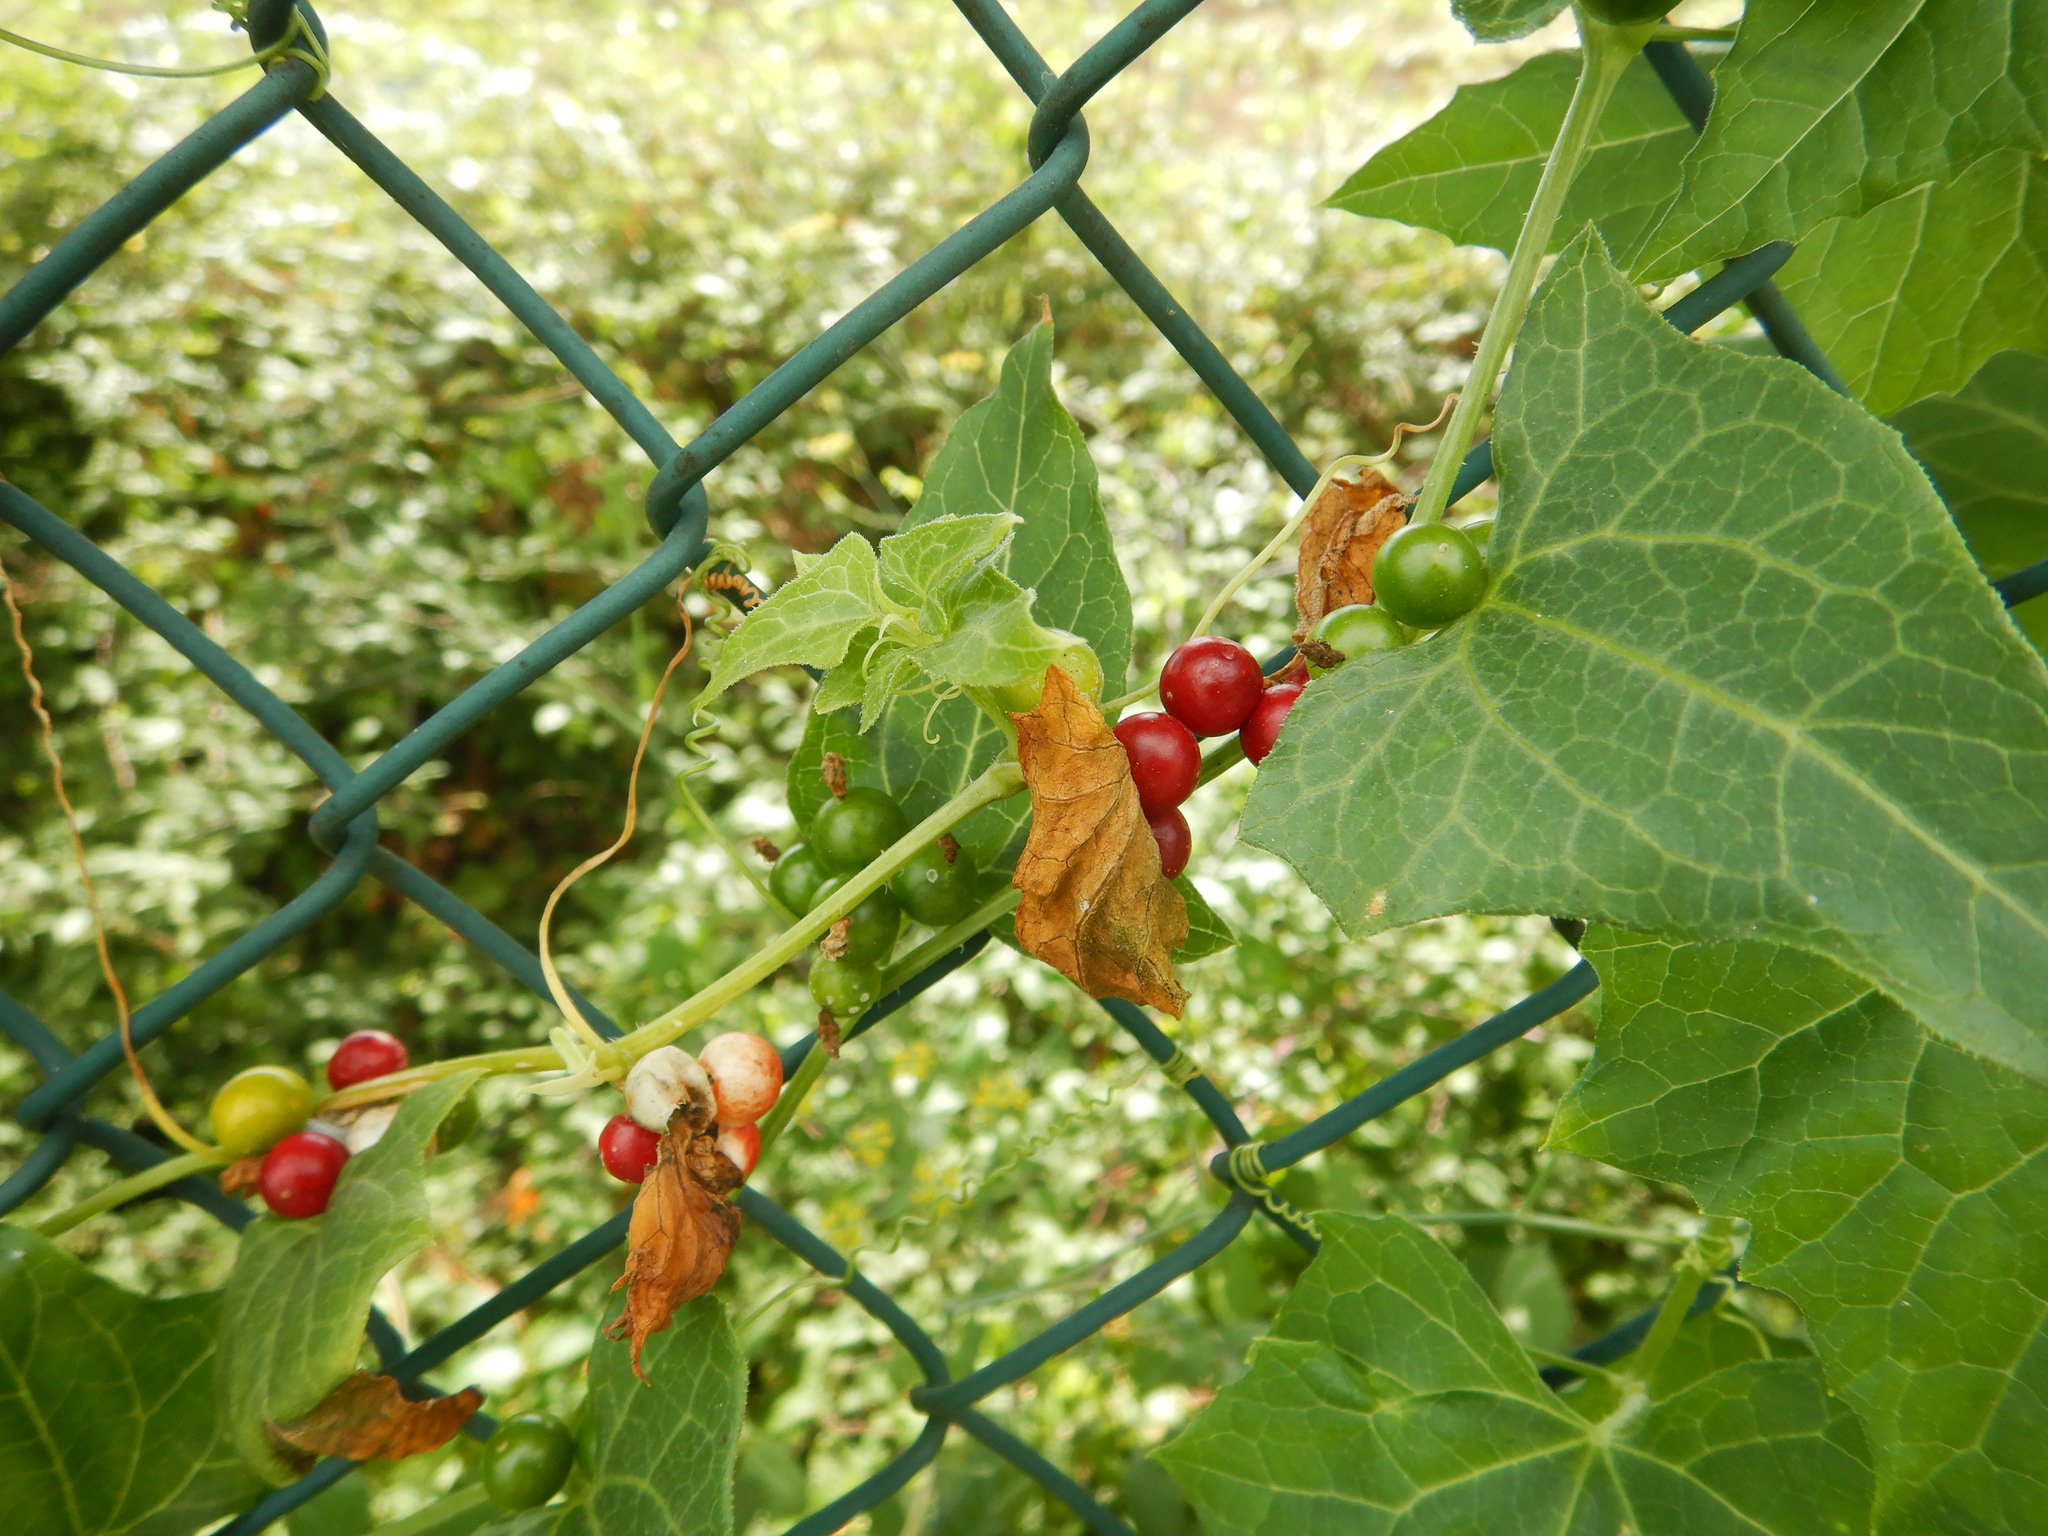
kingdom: Plantae
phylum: Tracheophyta
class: Magnoliopsida
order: Cucurbitales
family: Cucurbitaceae
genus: Bryonia
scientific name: Bryonia dioica
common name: White bryony
